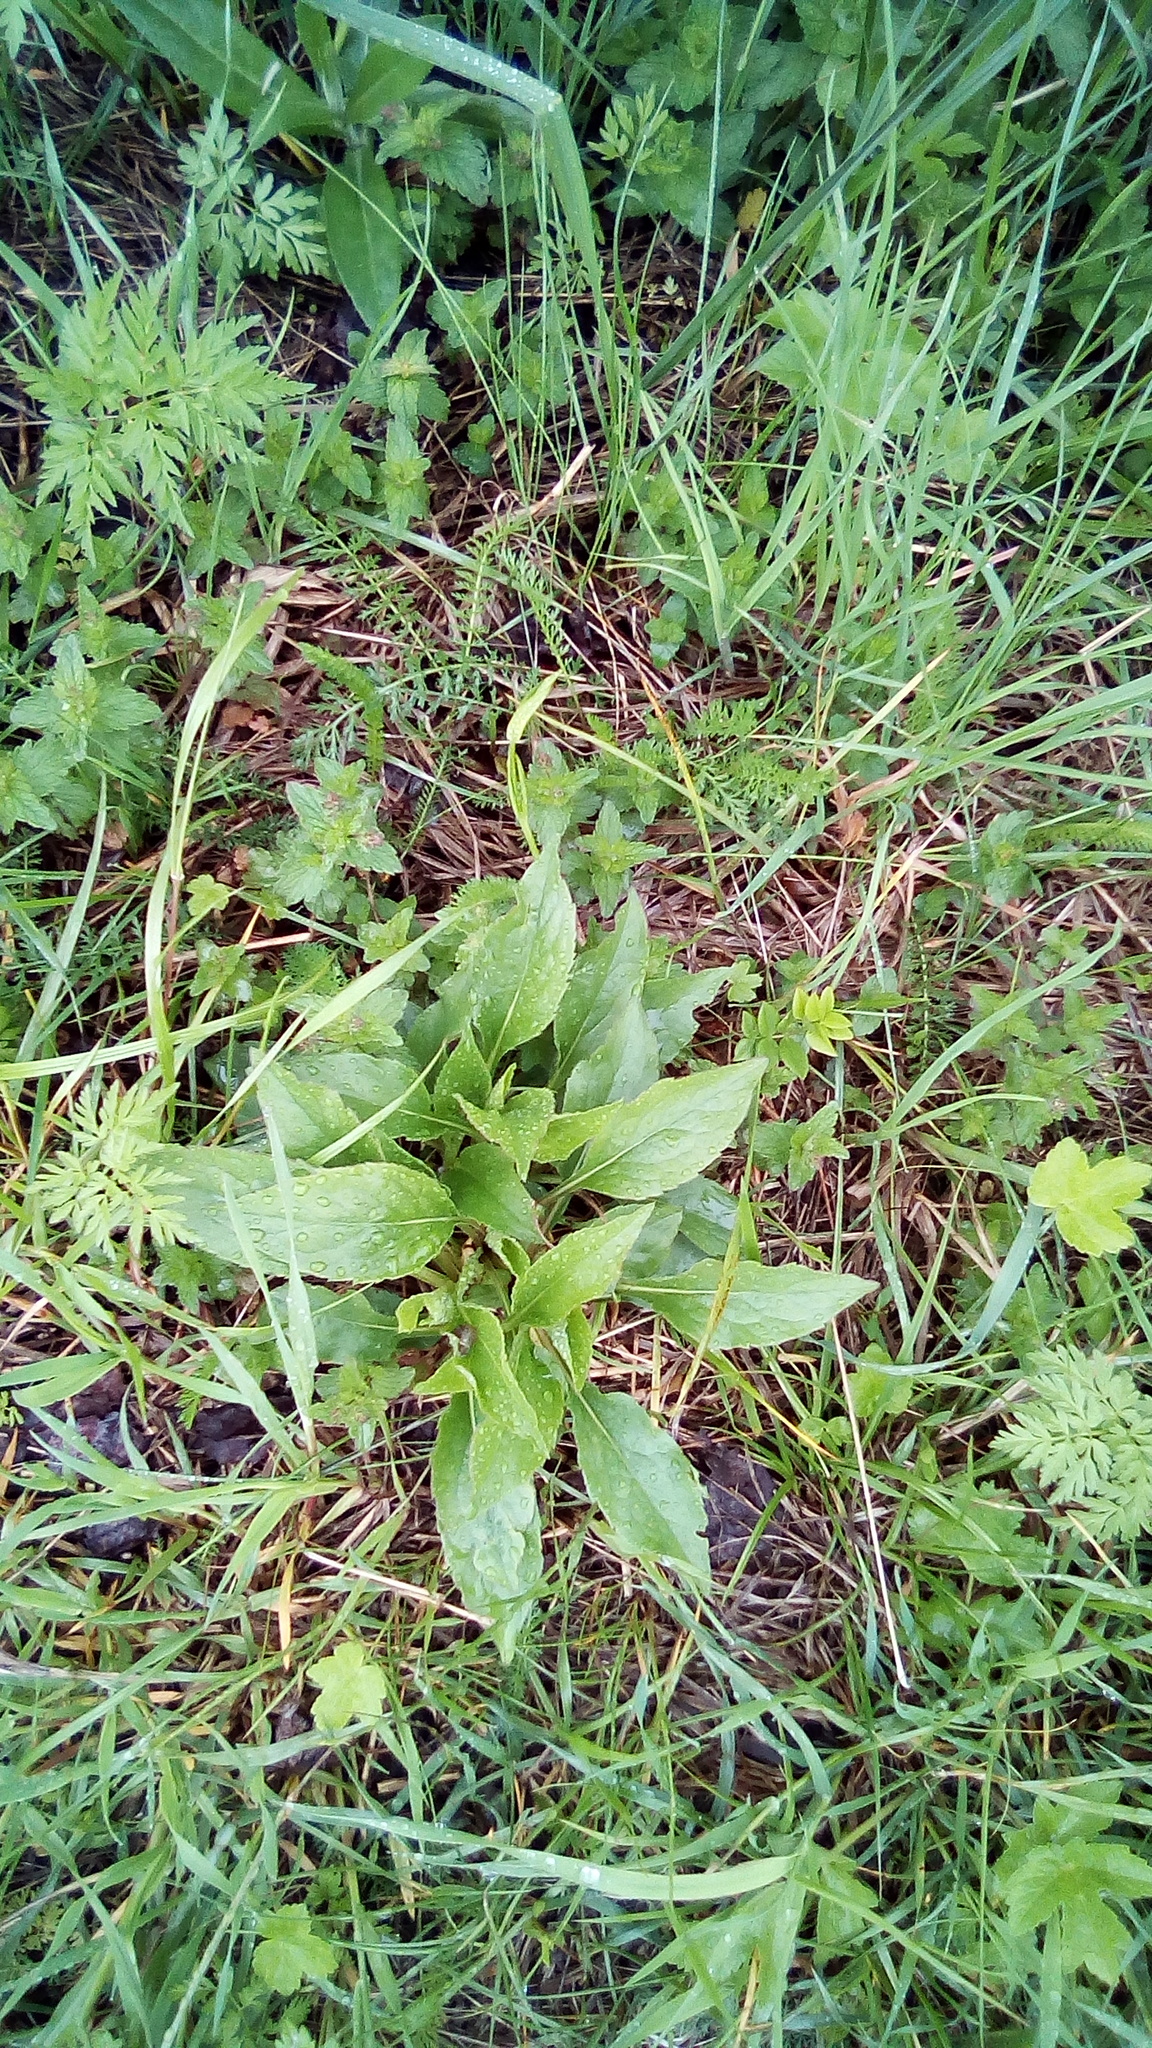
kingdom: Plantae
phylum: Tracheophyta
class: Magnoliopsida
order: Asterales
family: Asteraceae
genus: Solidago
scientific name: Solidago virgaurea
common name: Goldenrod
